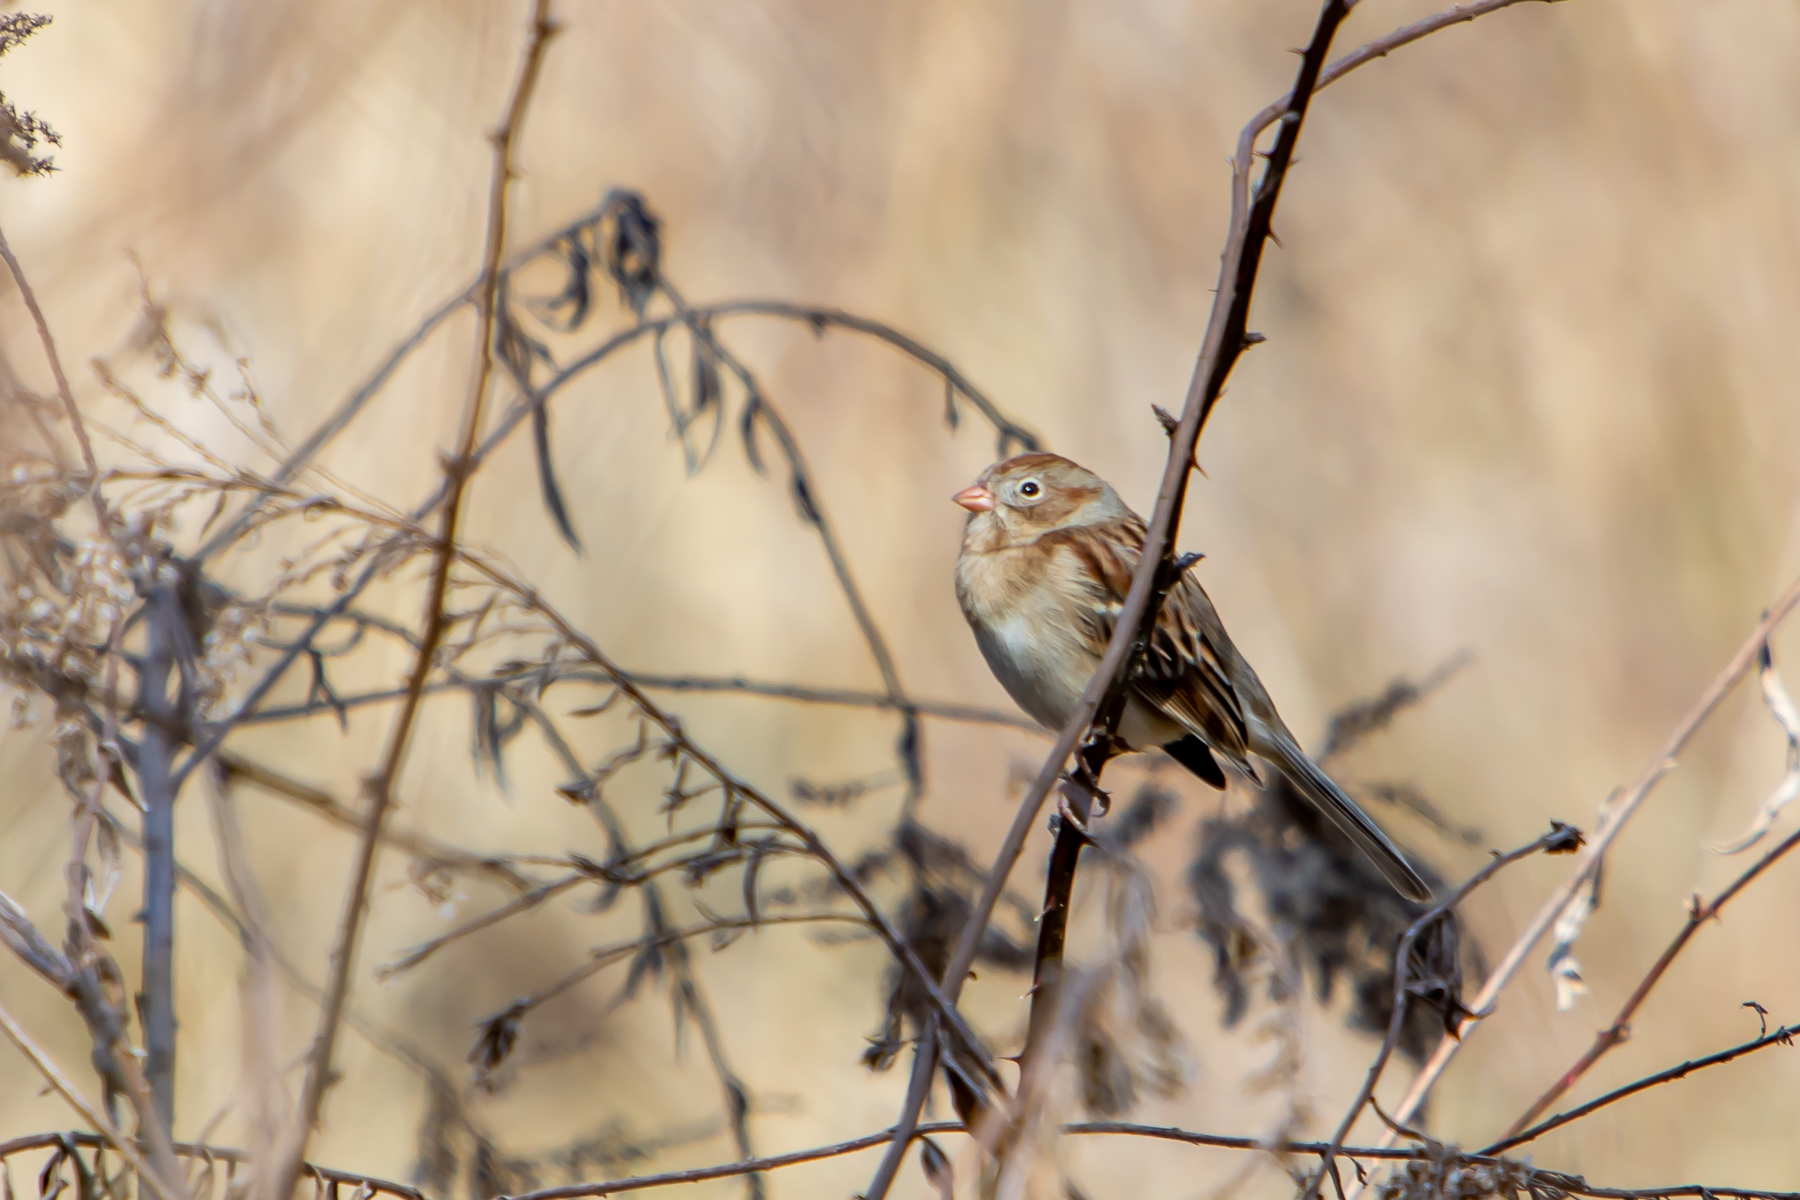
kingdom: Animalia
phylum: Chordata
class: Aves
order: Passeriformes
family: Passerellidae
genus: Spizella
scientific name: Spizella pusilla
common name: Field sparrow
